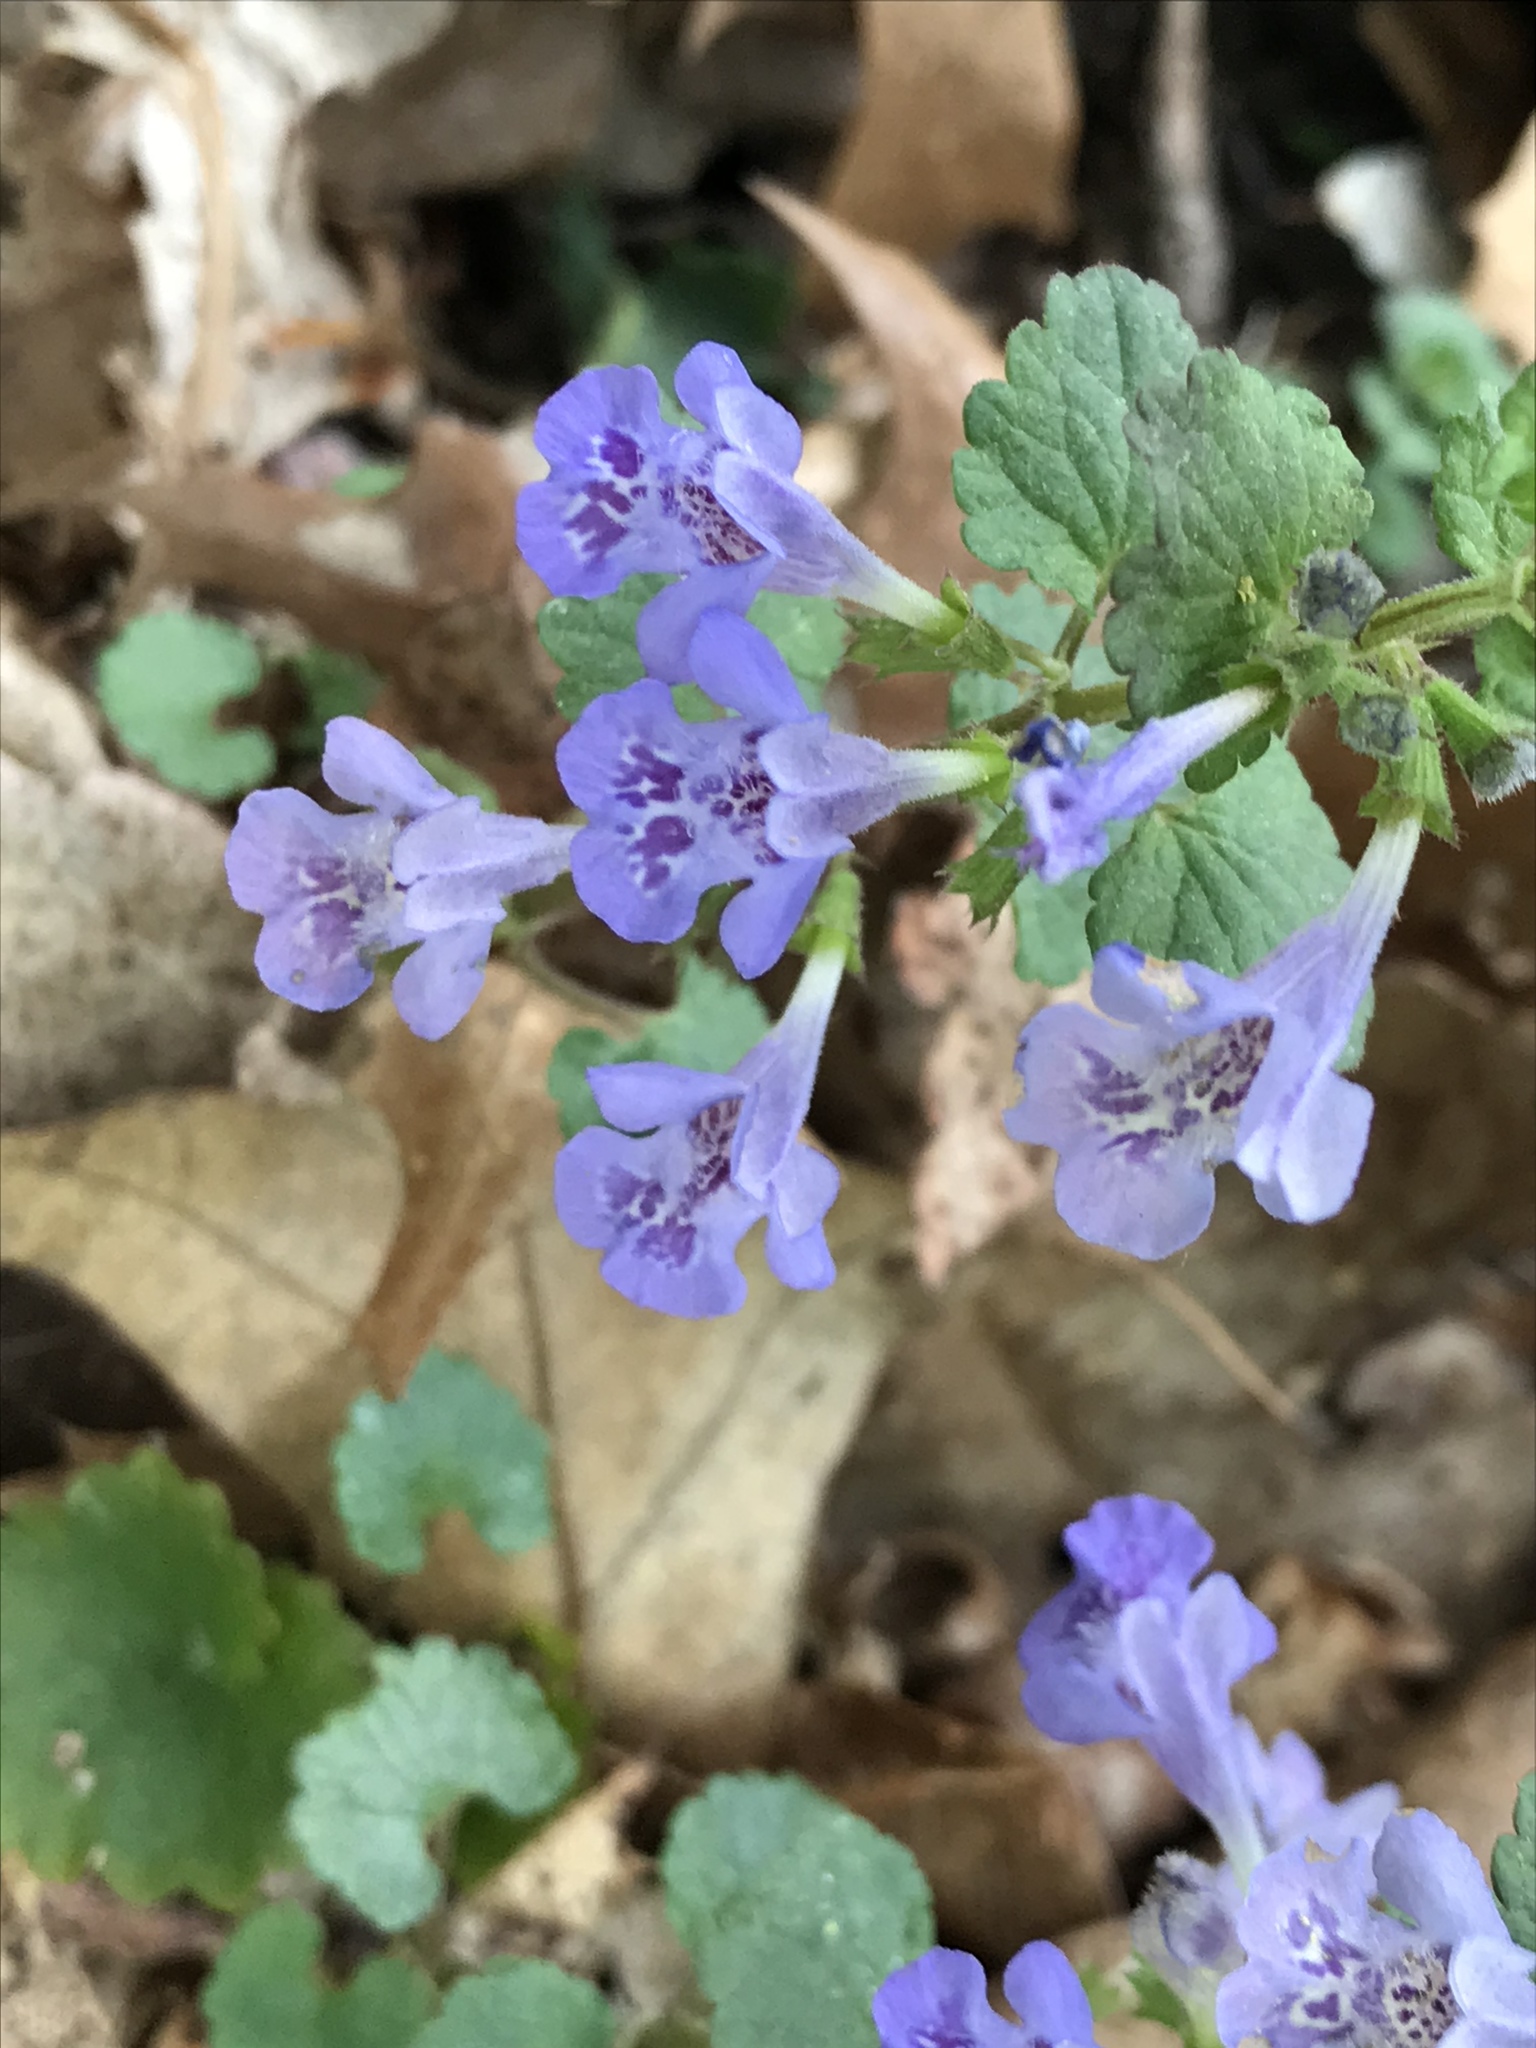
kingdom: Plantae
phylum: Tracheophyta
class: Magnoliopsida
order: Lamiales
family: Lamiaceae
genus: Glechoma
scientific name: Glechoma hederacea
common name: Ground ivy
